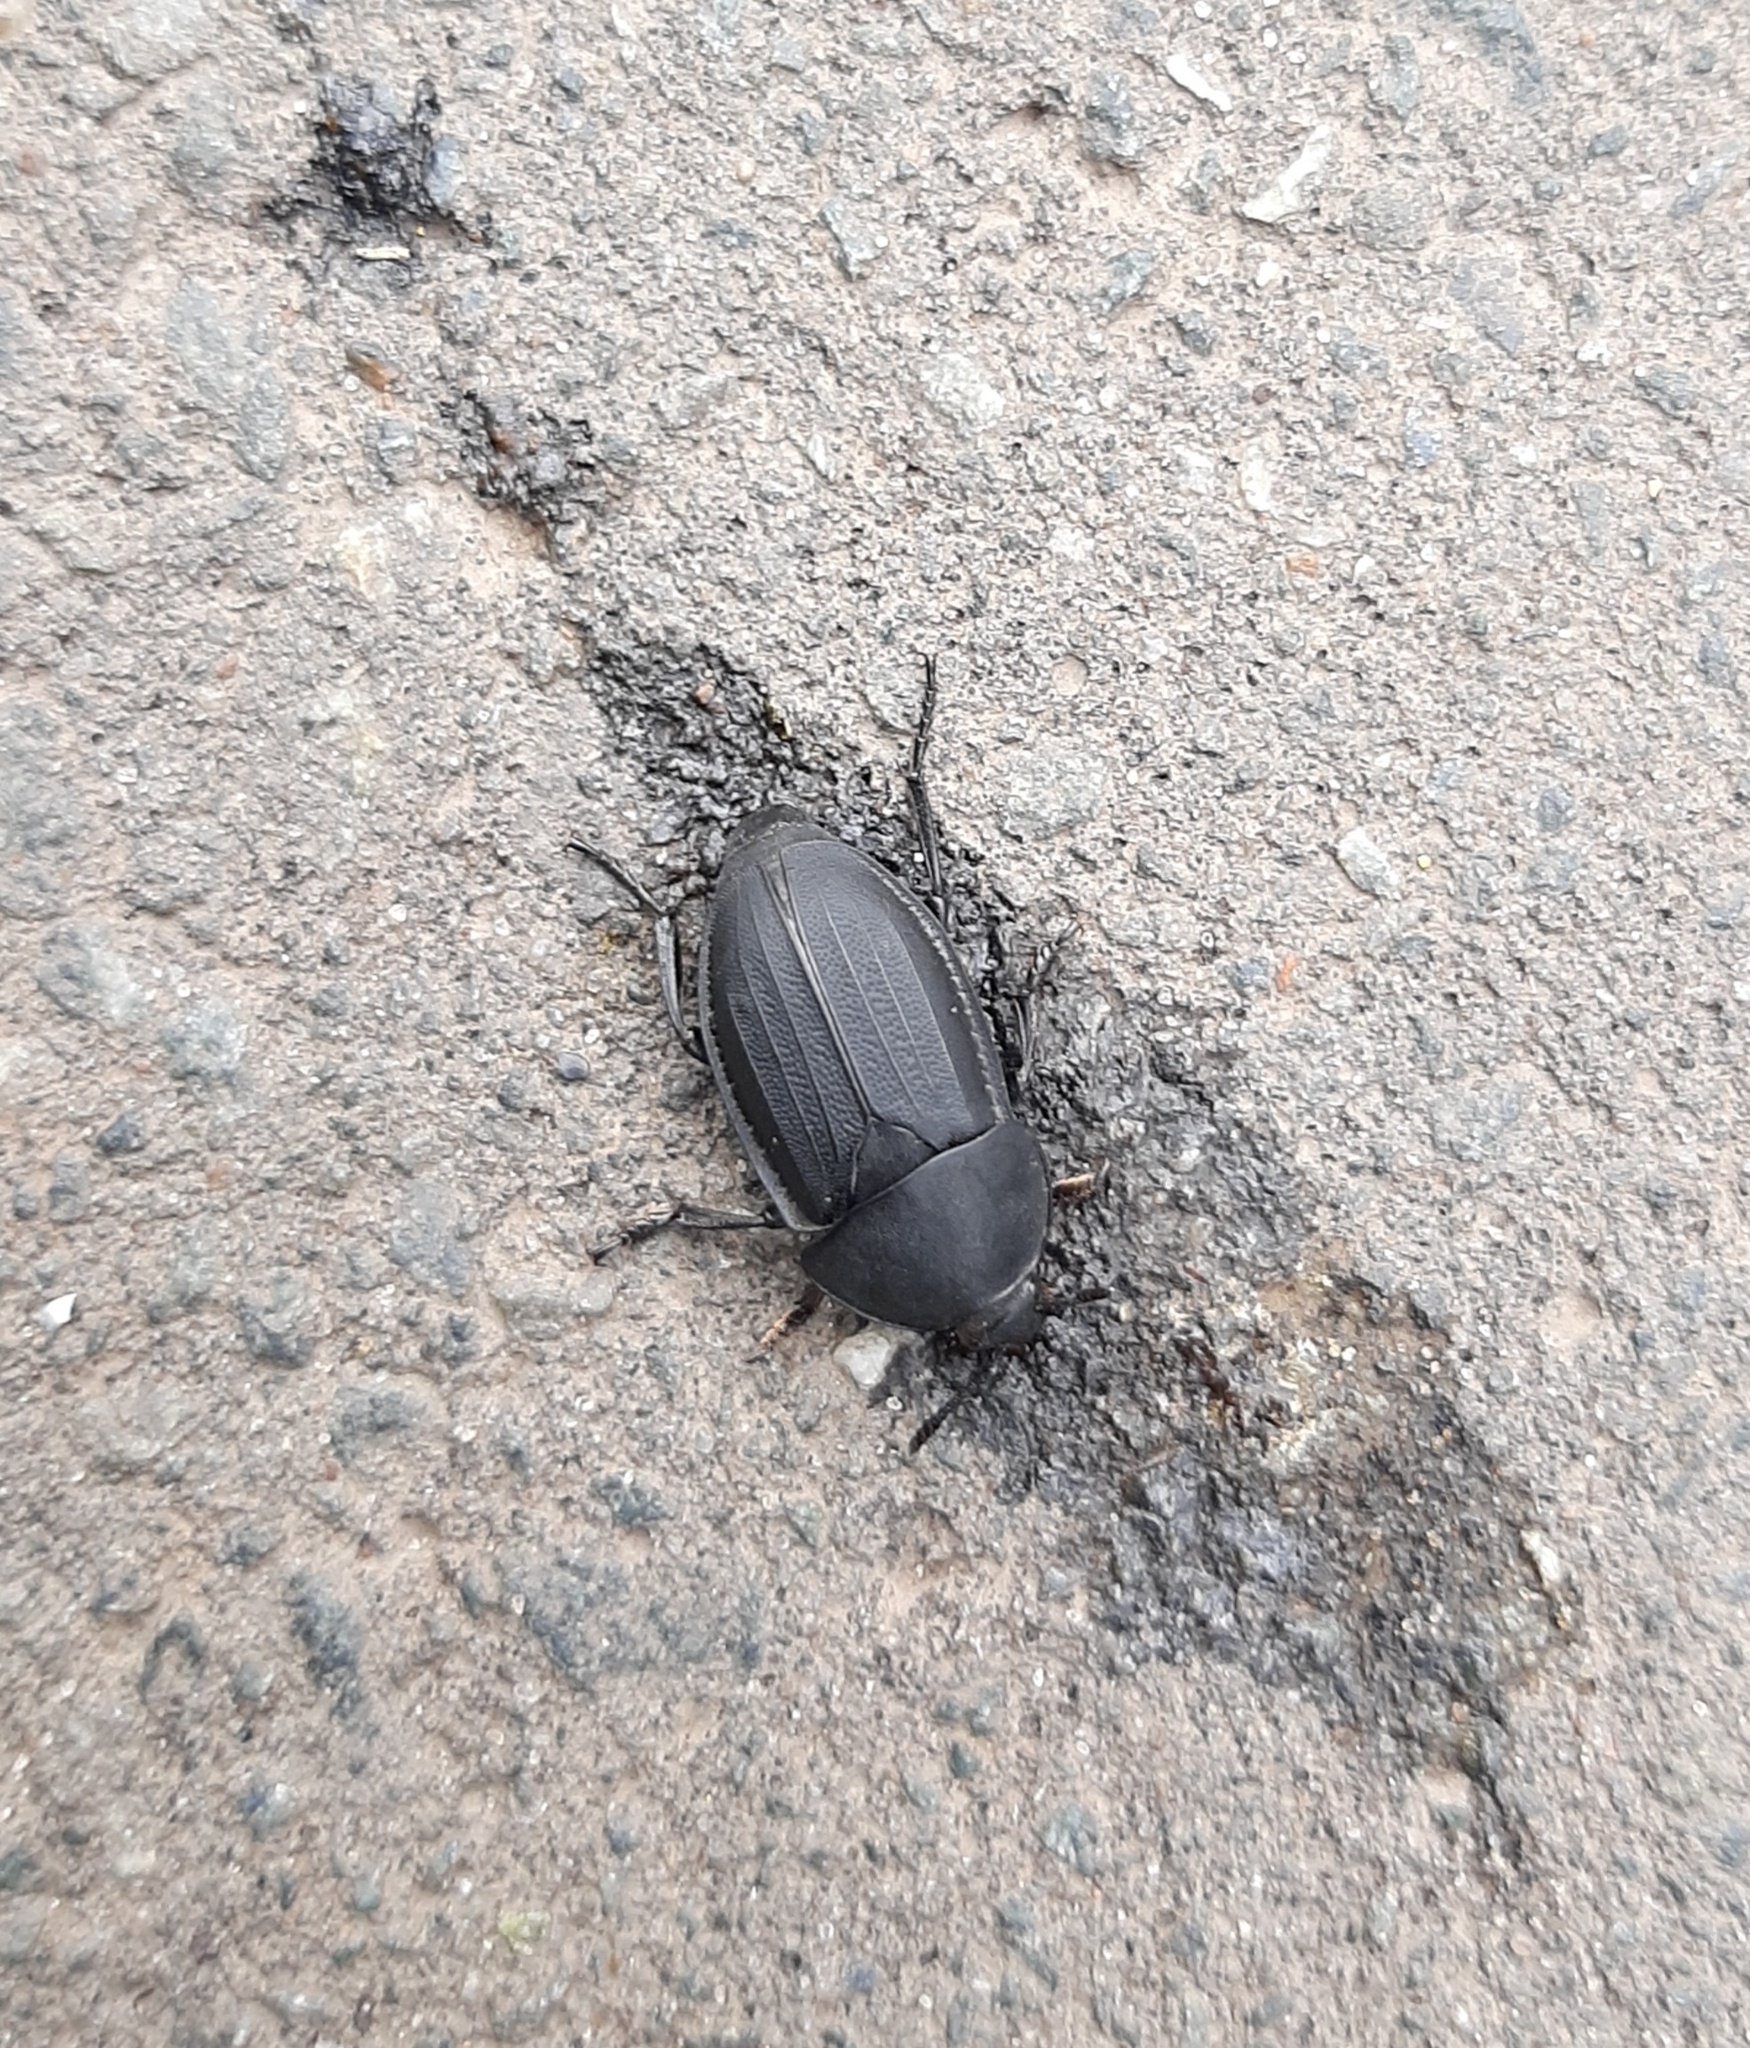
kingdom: Animalia
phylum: Arthropoda
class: Insecta
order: Coleoptera
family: Staphylinidae
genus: Silpha
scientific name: Silpha obscura
